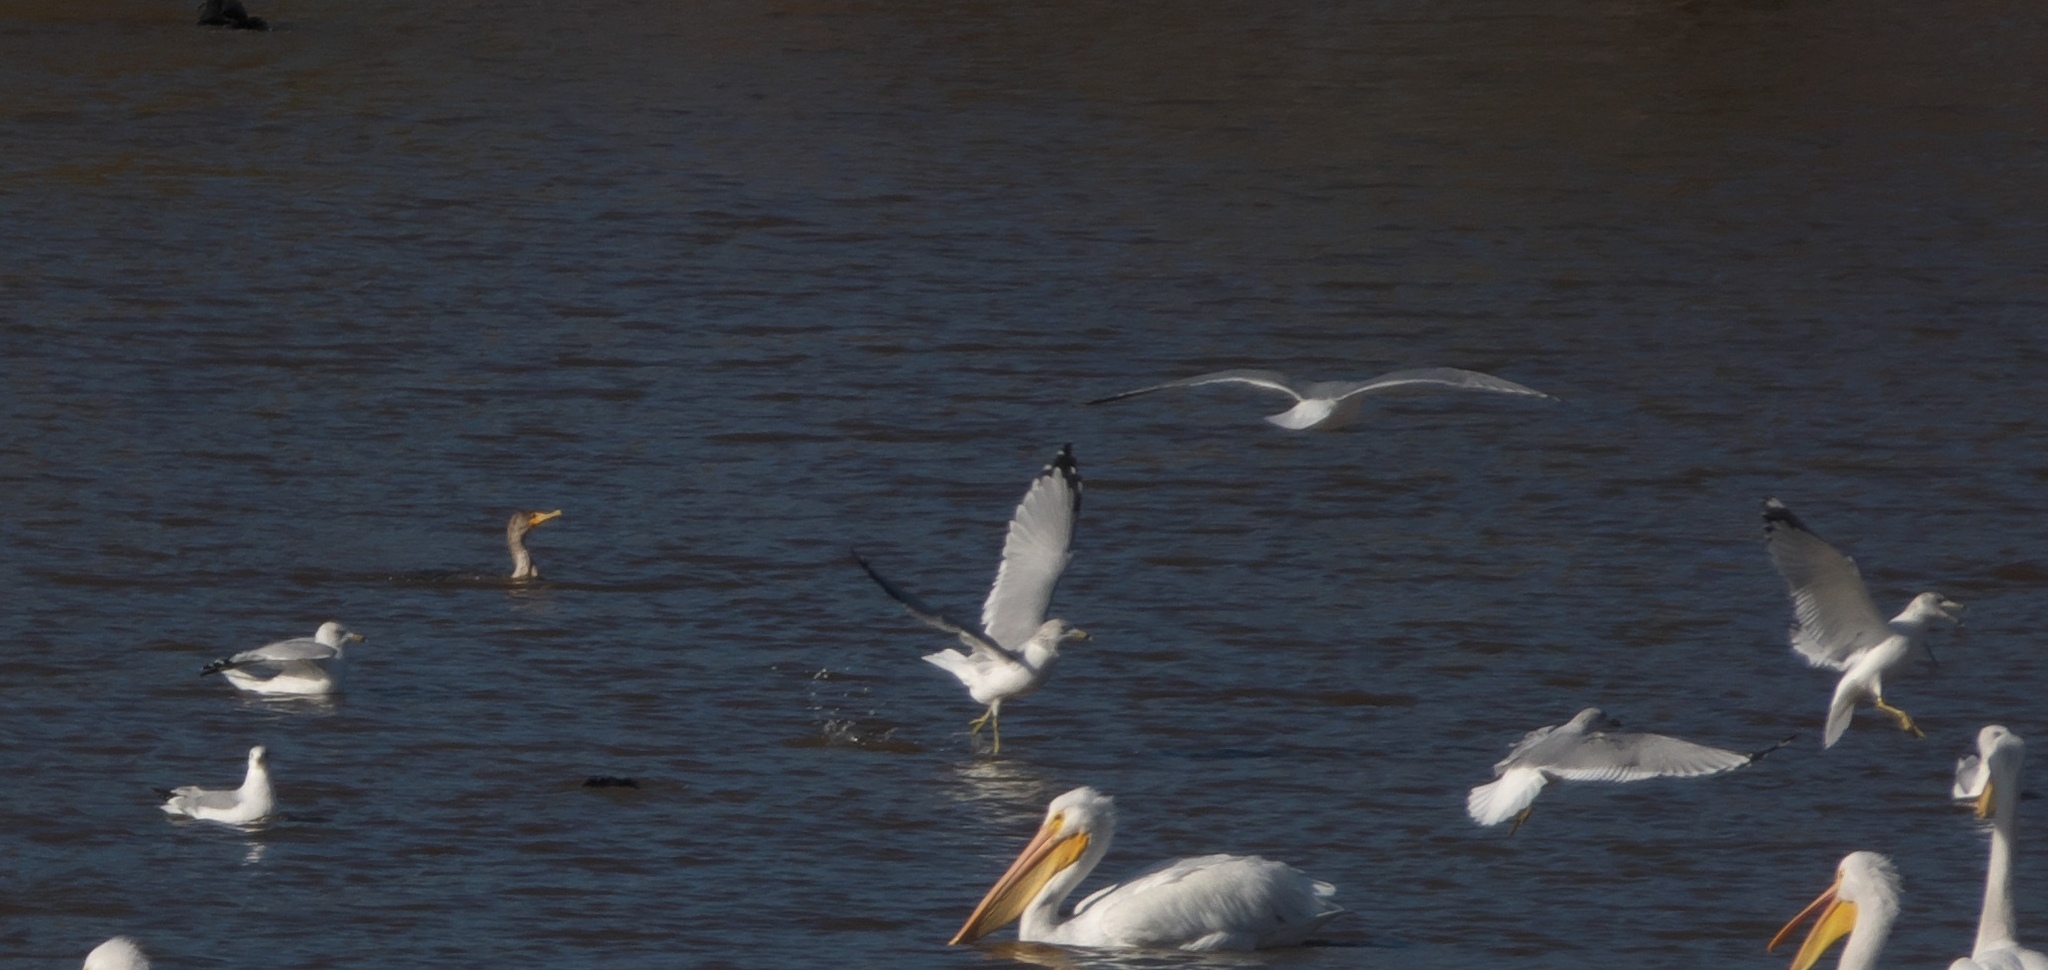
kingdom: Animalia
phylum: Chordata
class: Aves
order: Charadriiformes
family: Laridae
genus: Larus
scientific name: Larus delawarensis
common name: Ring-billed gull
